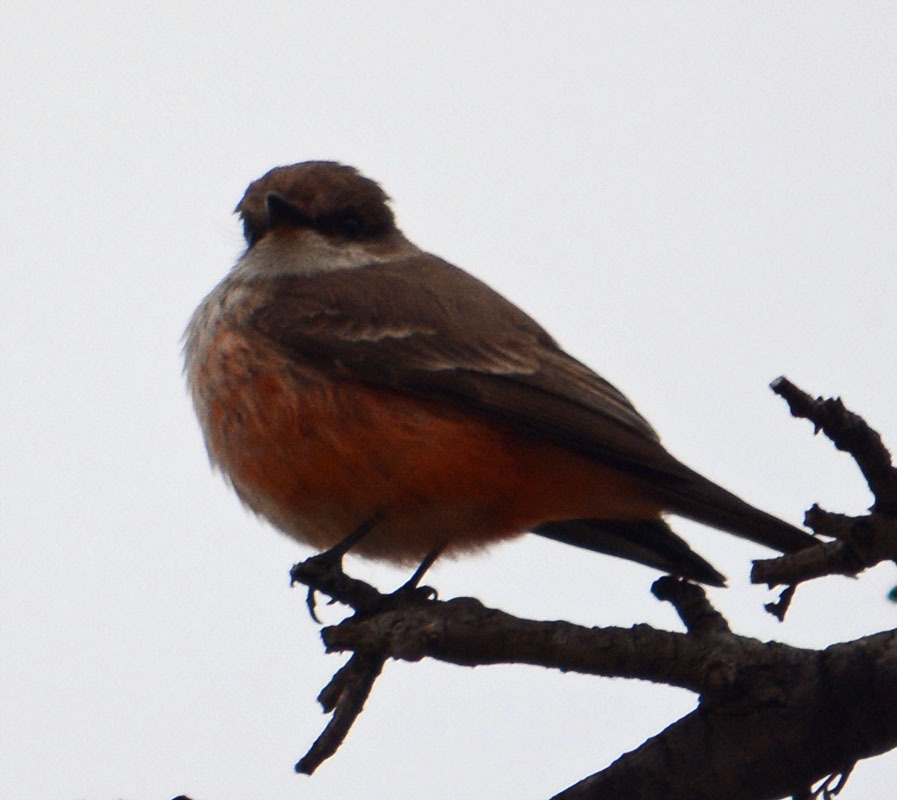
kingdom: Animalia
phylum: Chordata
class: Aves
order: Passeriformes
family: Tyrannidae
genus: Pyrocephalus
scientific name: Pyrocephalus rubinus
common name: Vermilion flycatcher
